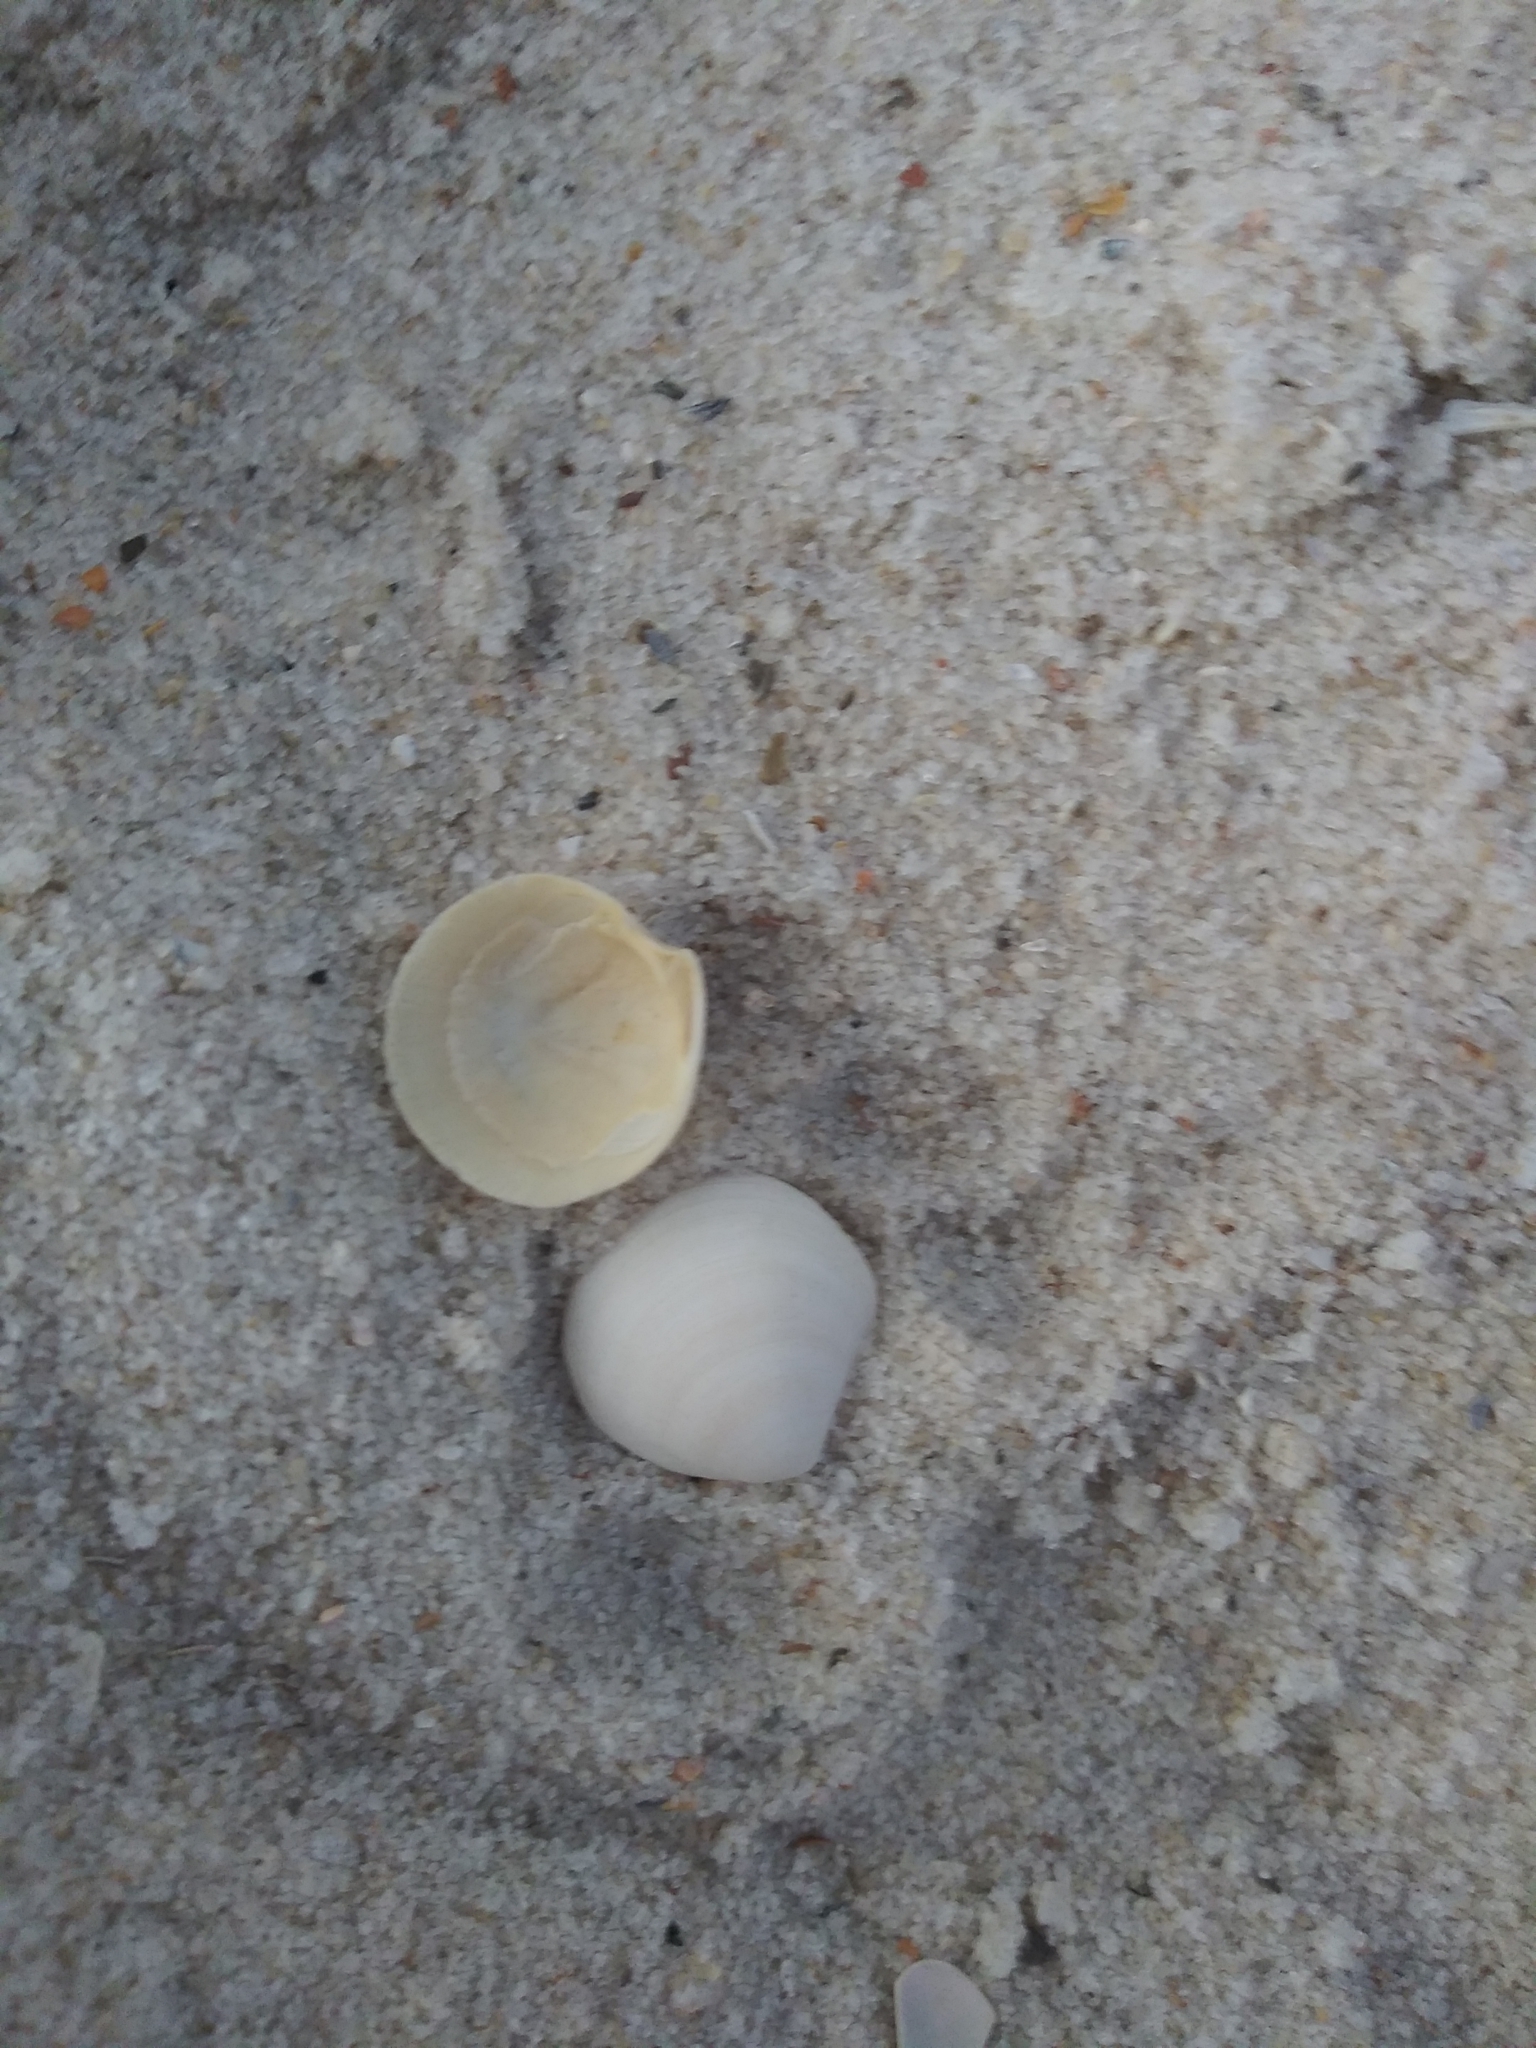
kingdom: Animalia
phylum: Mollusca
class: Bivalvia
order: Lucinida
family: Lucinidae
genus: Callucina
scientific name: Callucina keenae
